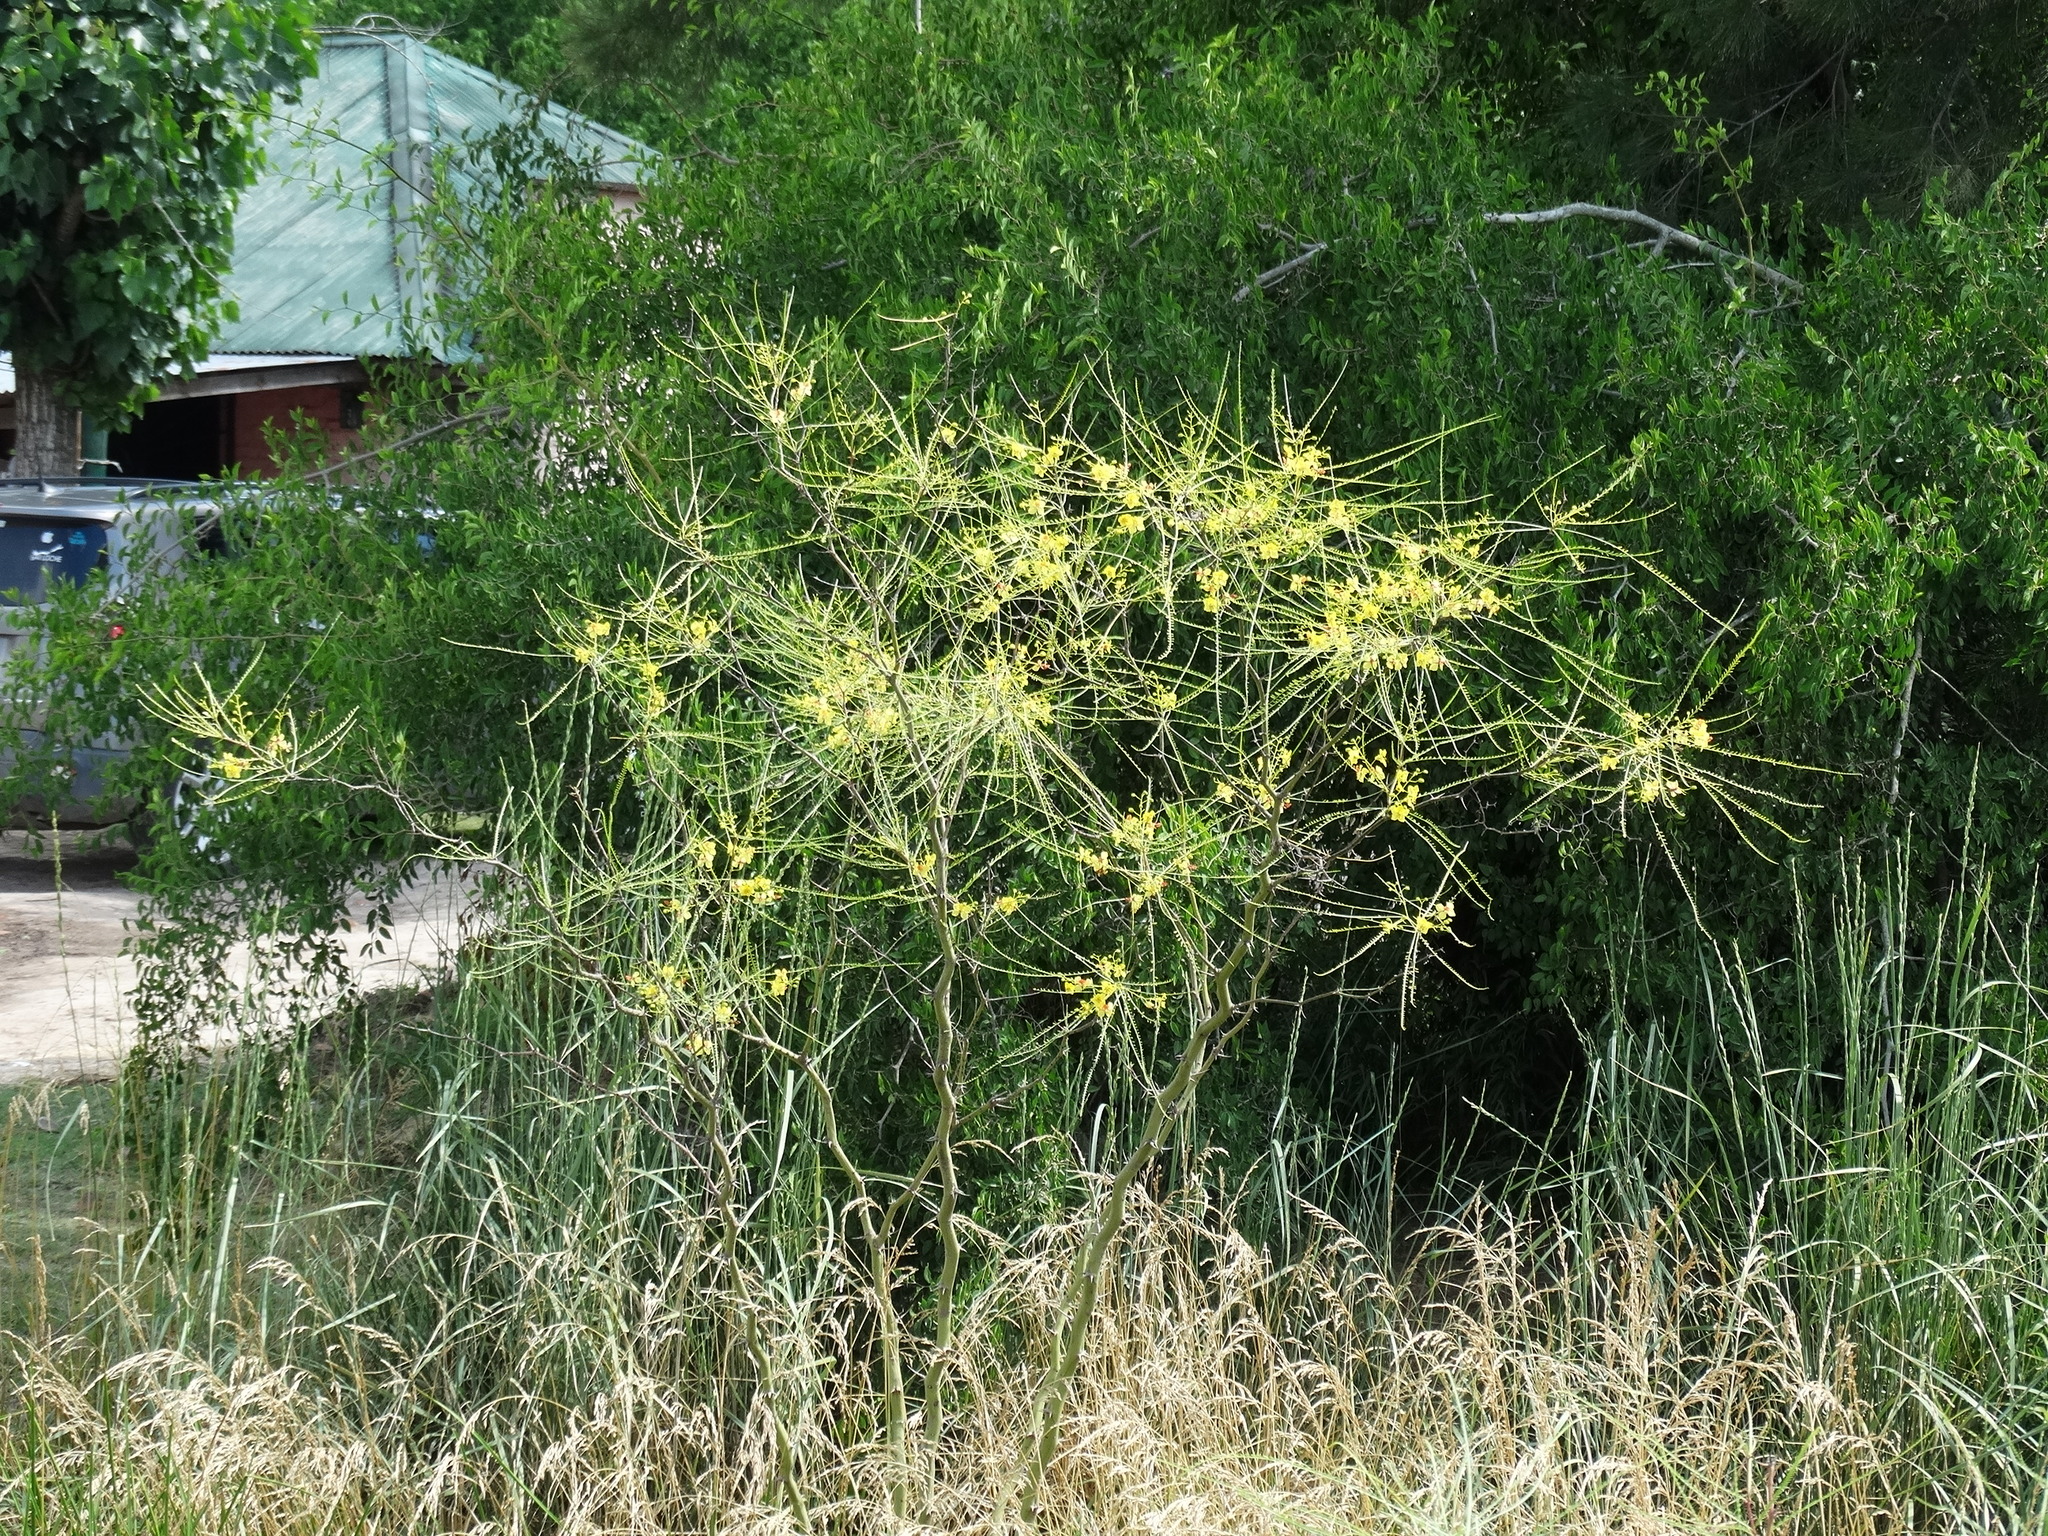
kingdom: Plantae
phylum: Tracheophyta
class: Magnoliopsida
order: Fabales
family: Fabaceae
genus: Parkinsonia
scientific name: Parkinsonia aculeata
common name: Jerusalem thorn
